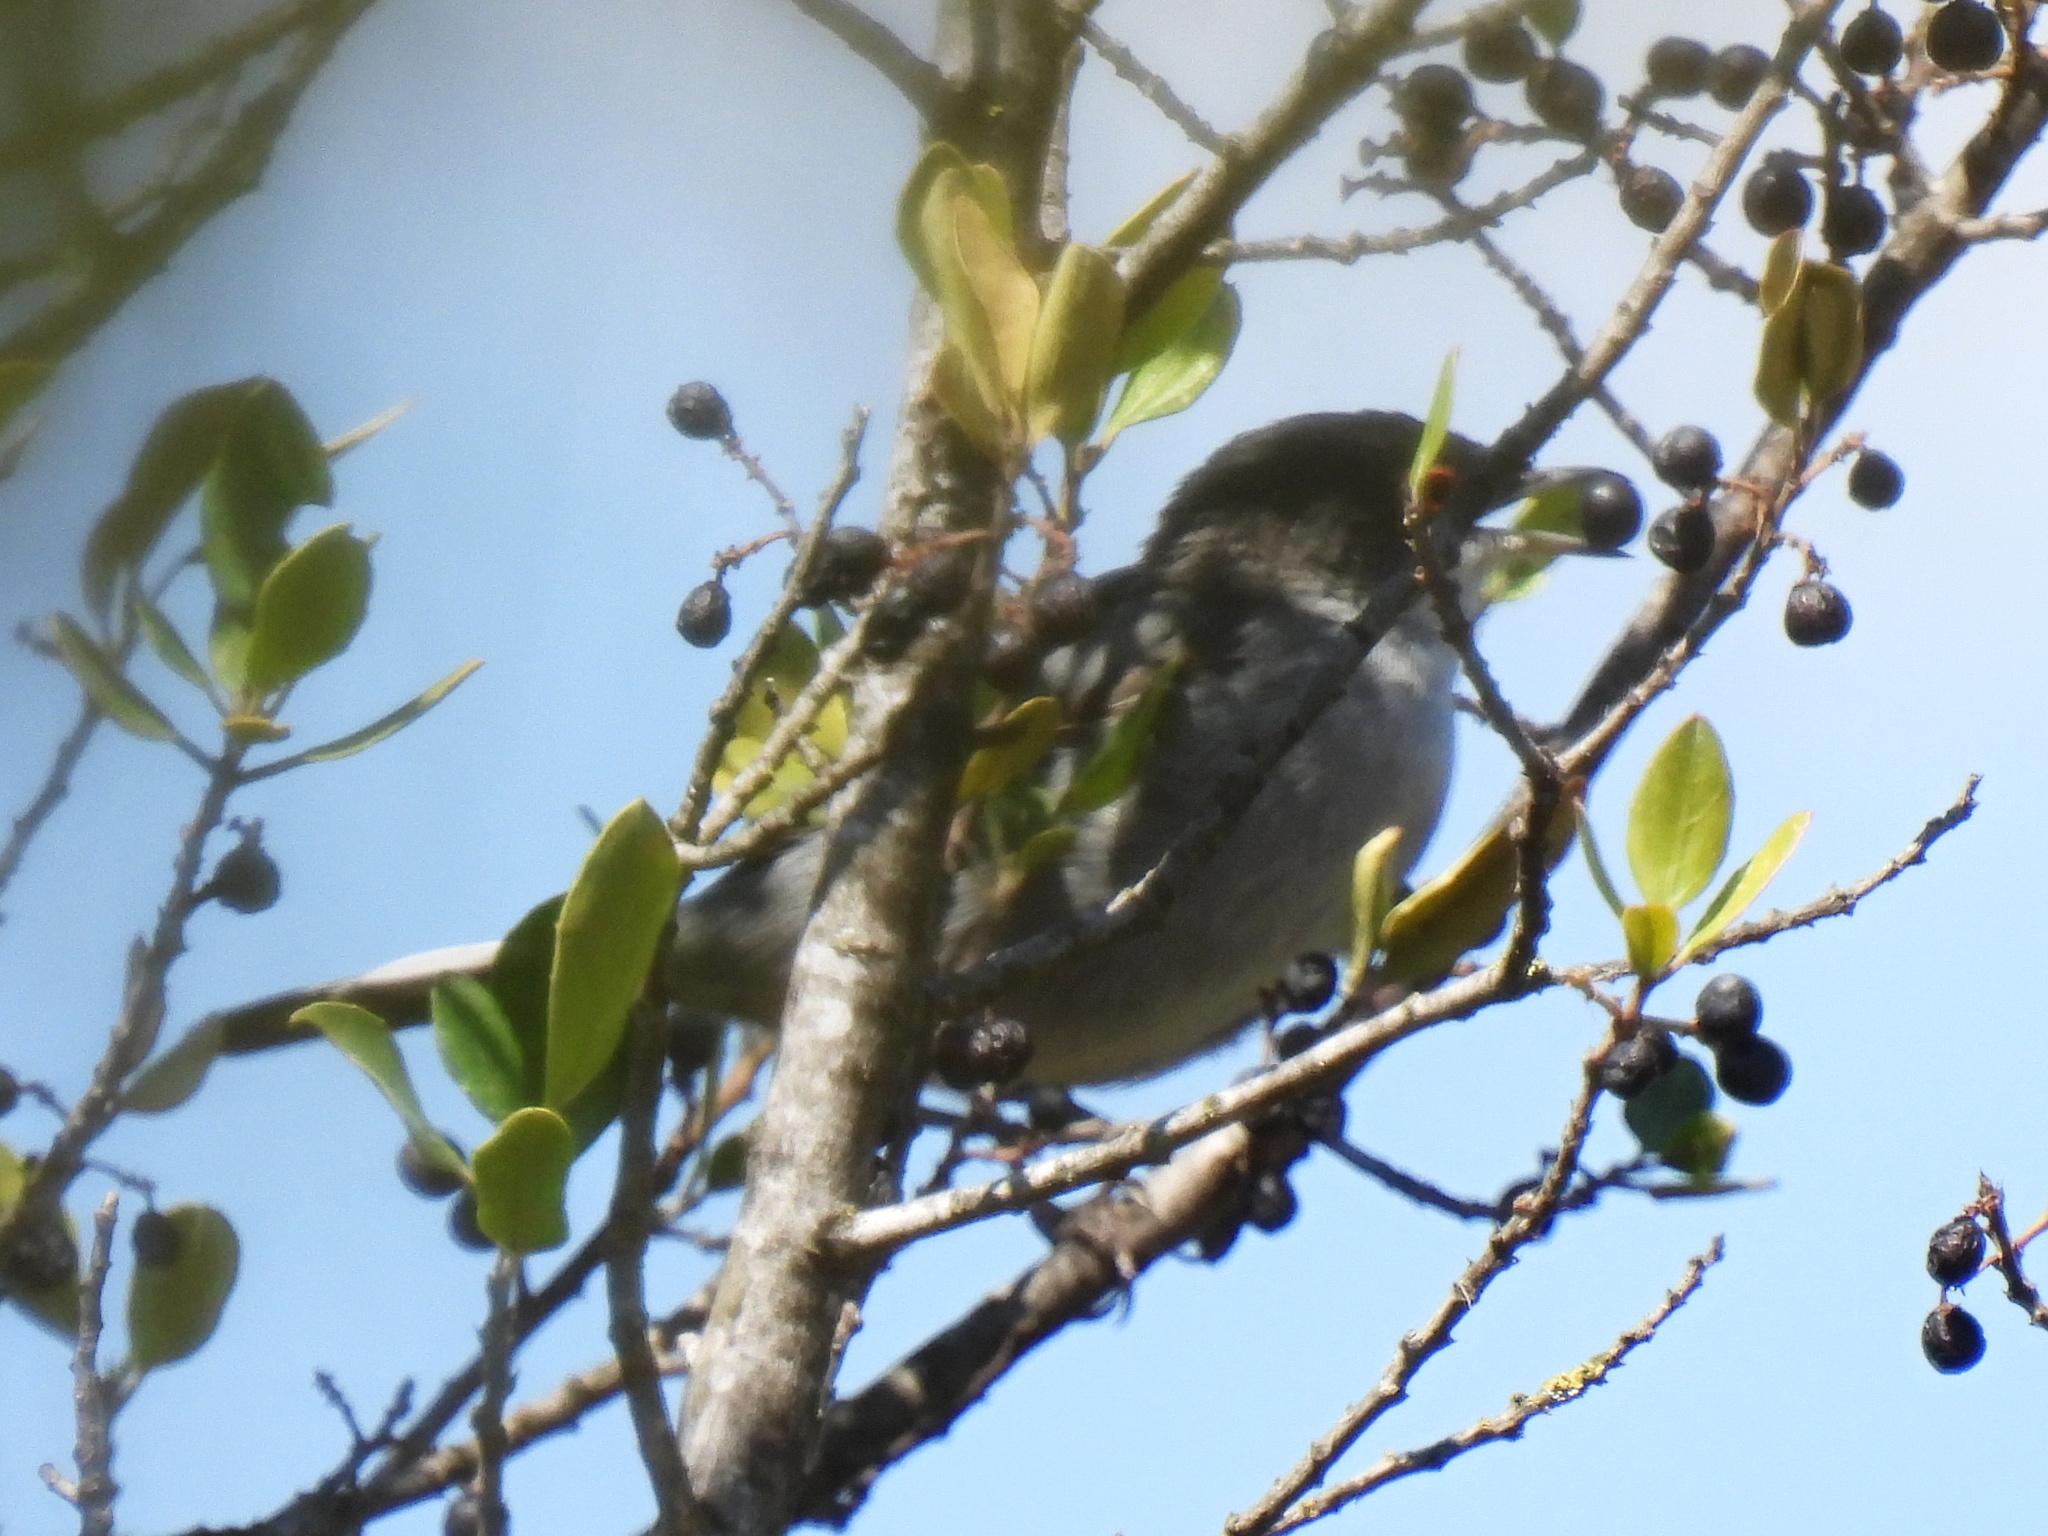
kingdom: Animalia
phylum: Chordata
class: Aves
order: Passeriformes
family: Sylviidae
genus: Curruca
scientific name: Curruca melanocephala
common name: Sardinian warbler
